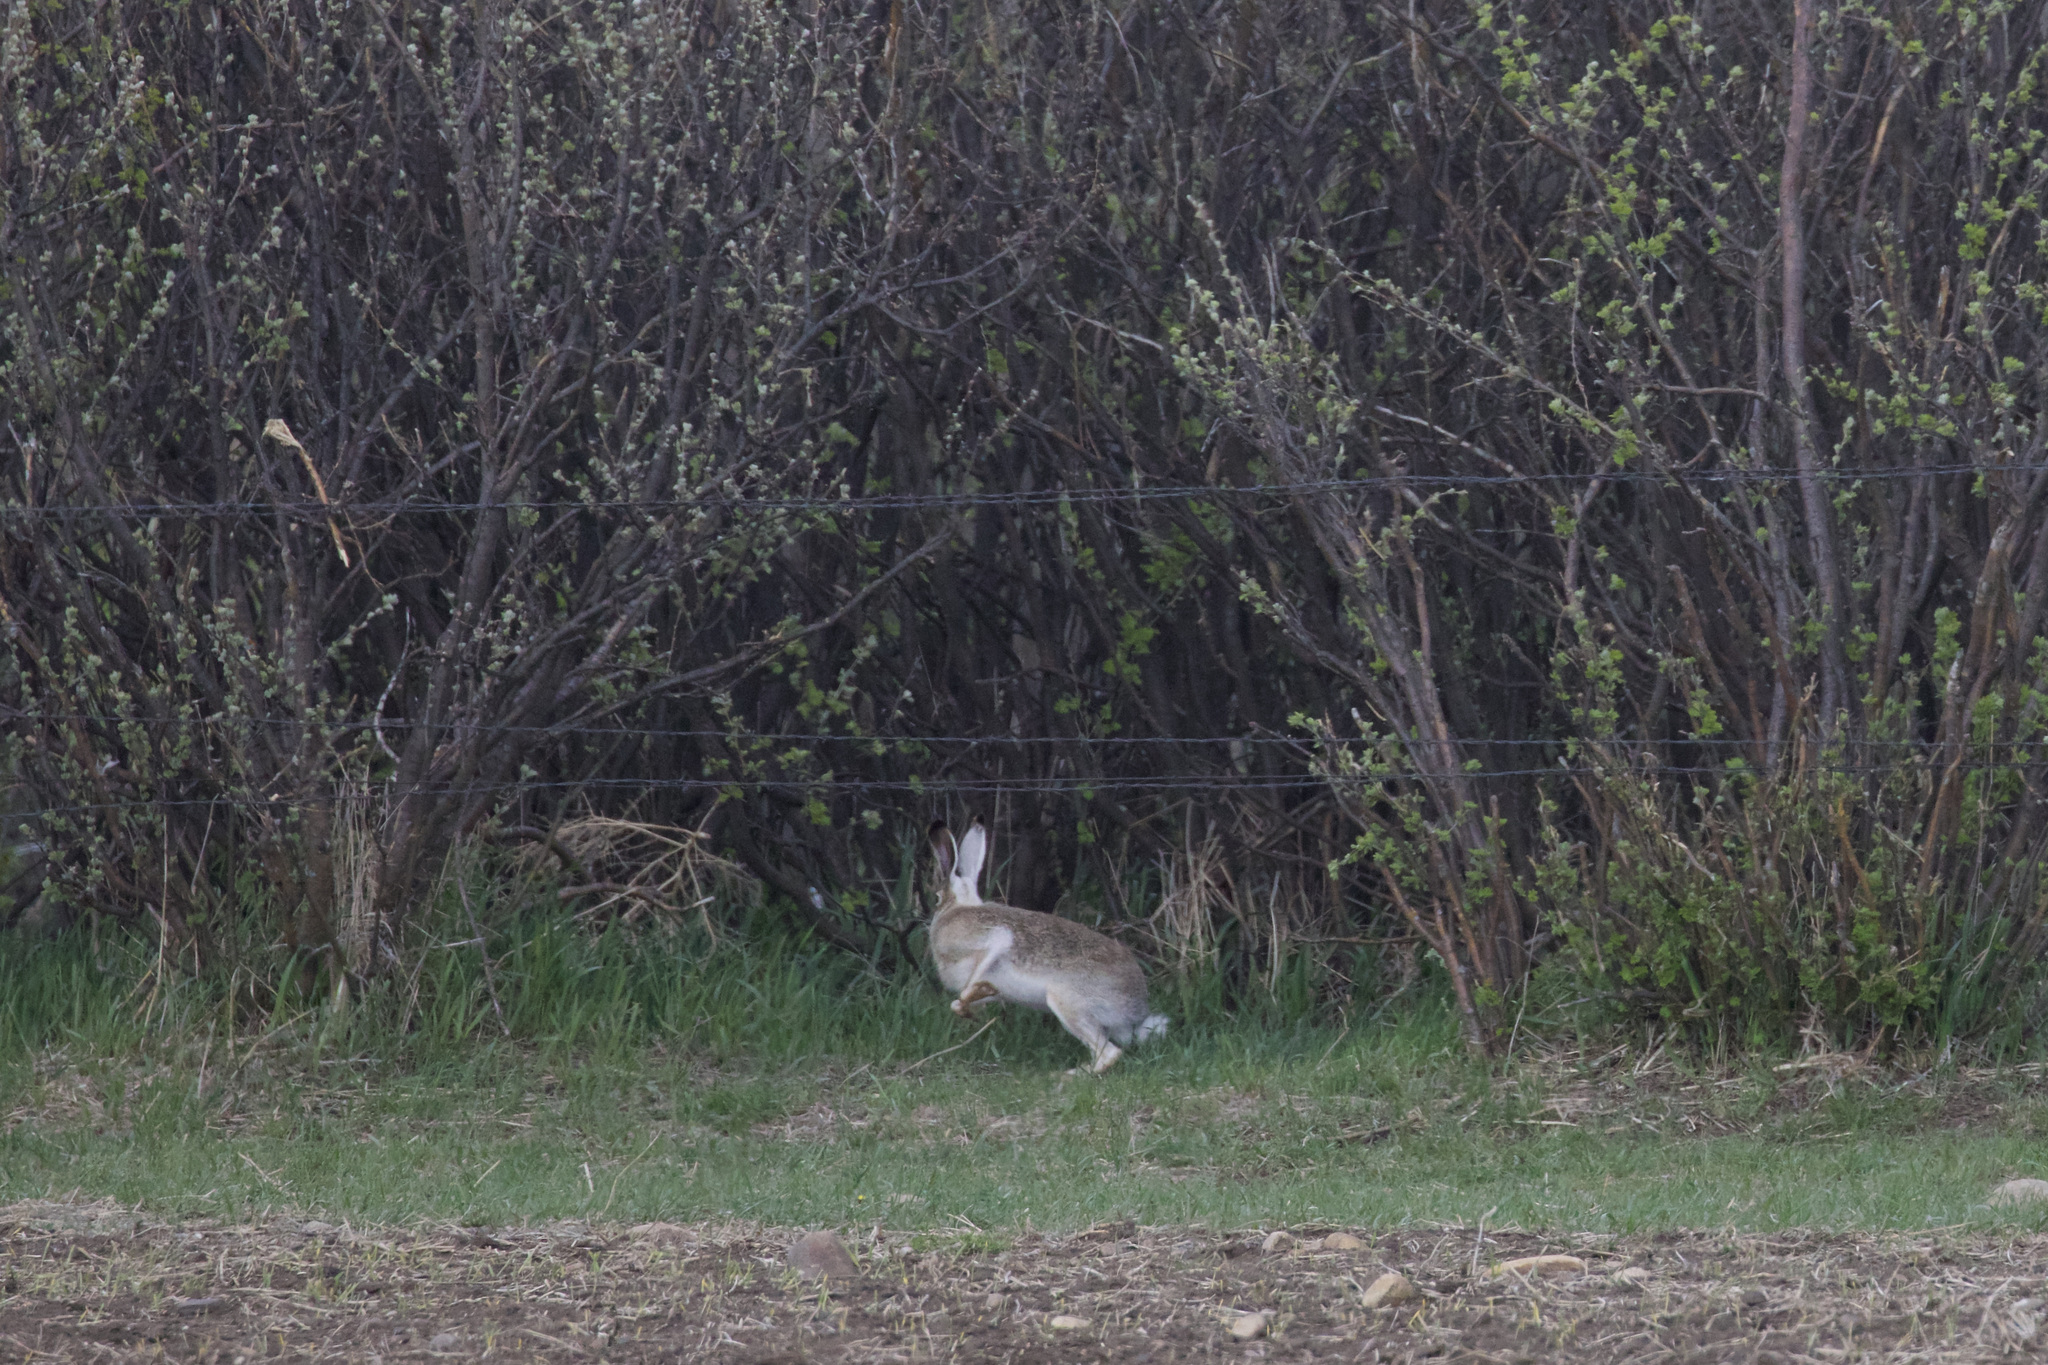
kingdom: Animalia
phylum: Chordata
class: Mammalia
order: Lagomorpha
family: Leporidae
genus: Lepus
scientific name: Lepus townsendii
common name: White-tailed jackrabbit
